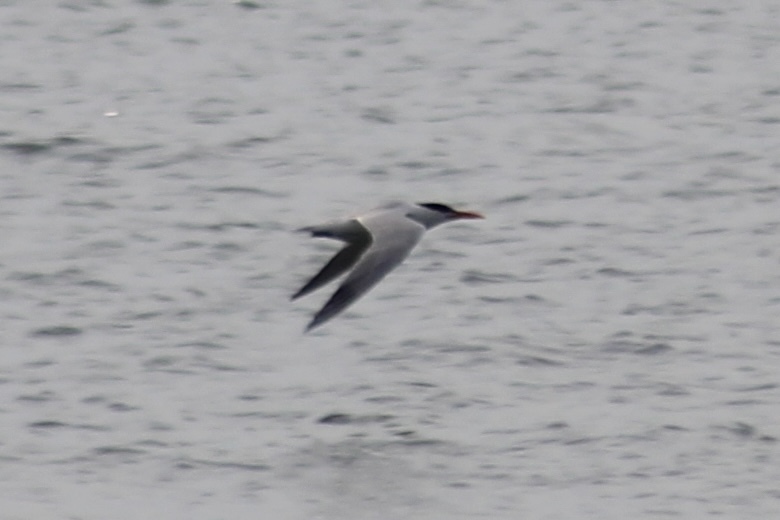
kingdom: Animalia
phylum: Chordata
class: Aves
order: Charadriiformes
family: Laridae
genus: Thalasseus
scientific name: Thalasseus maximus
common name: Royal tern
